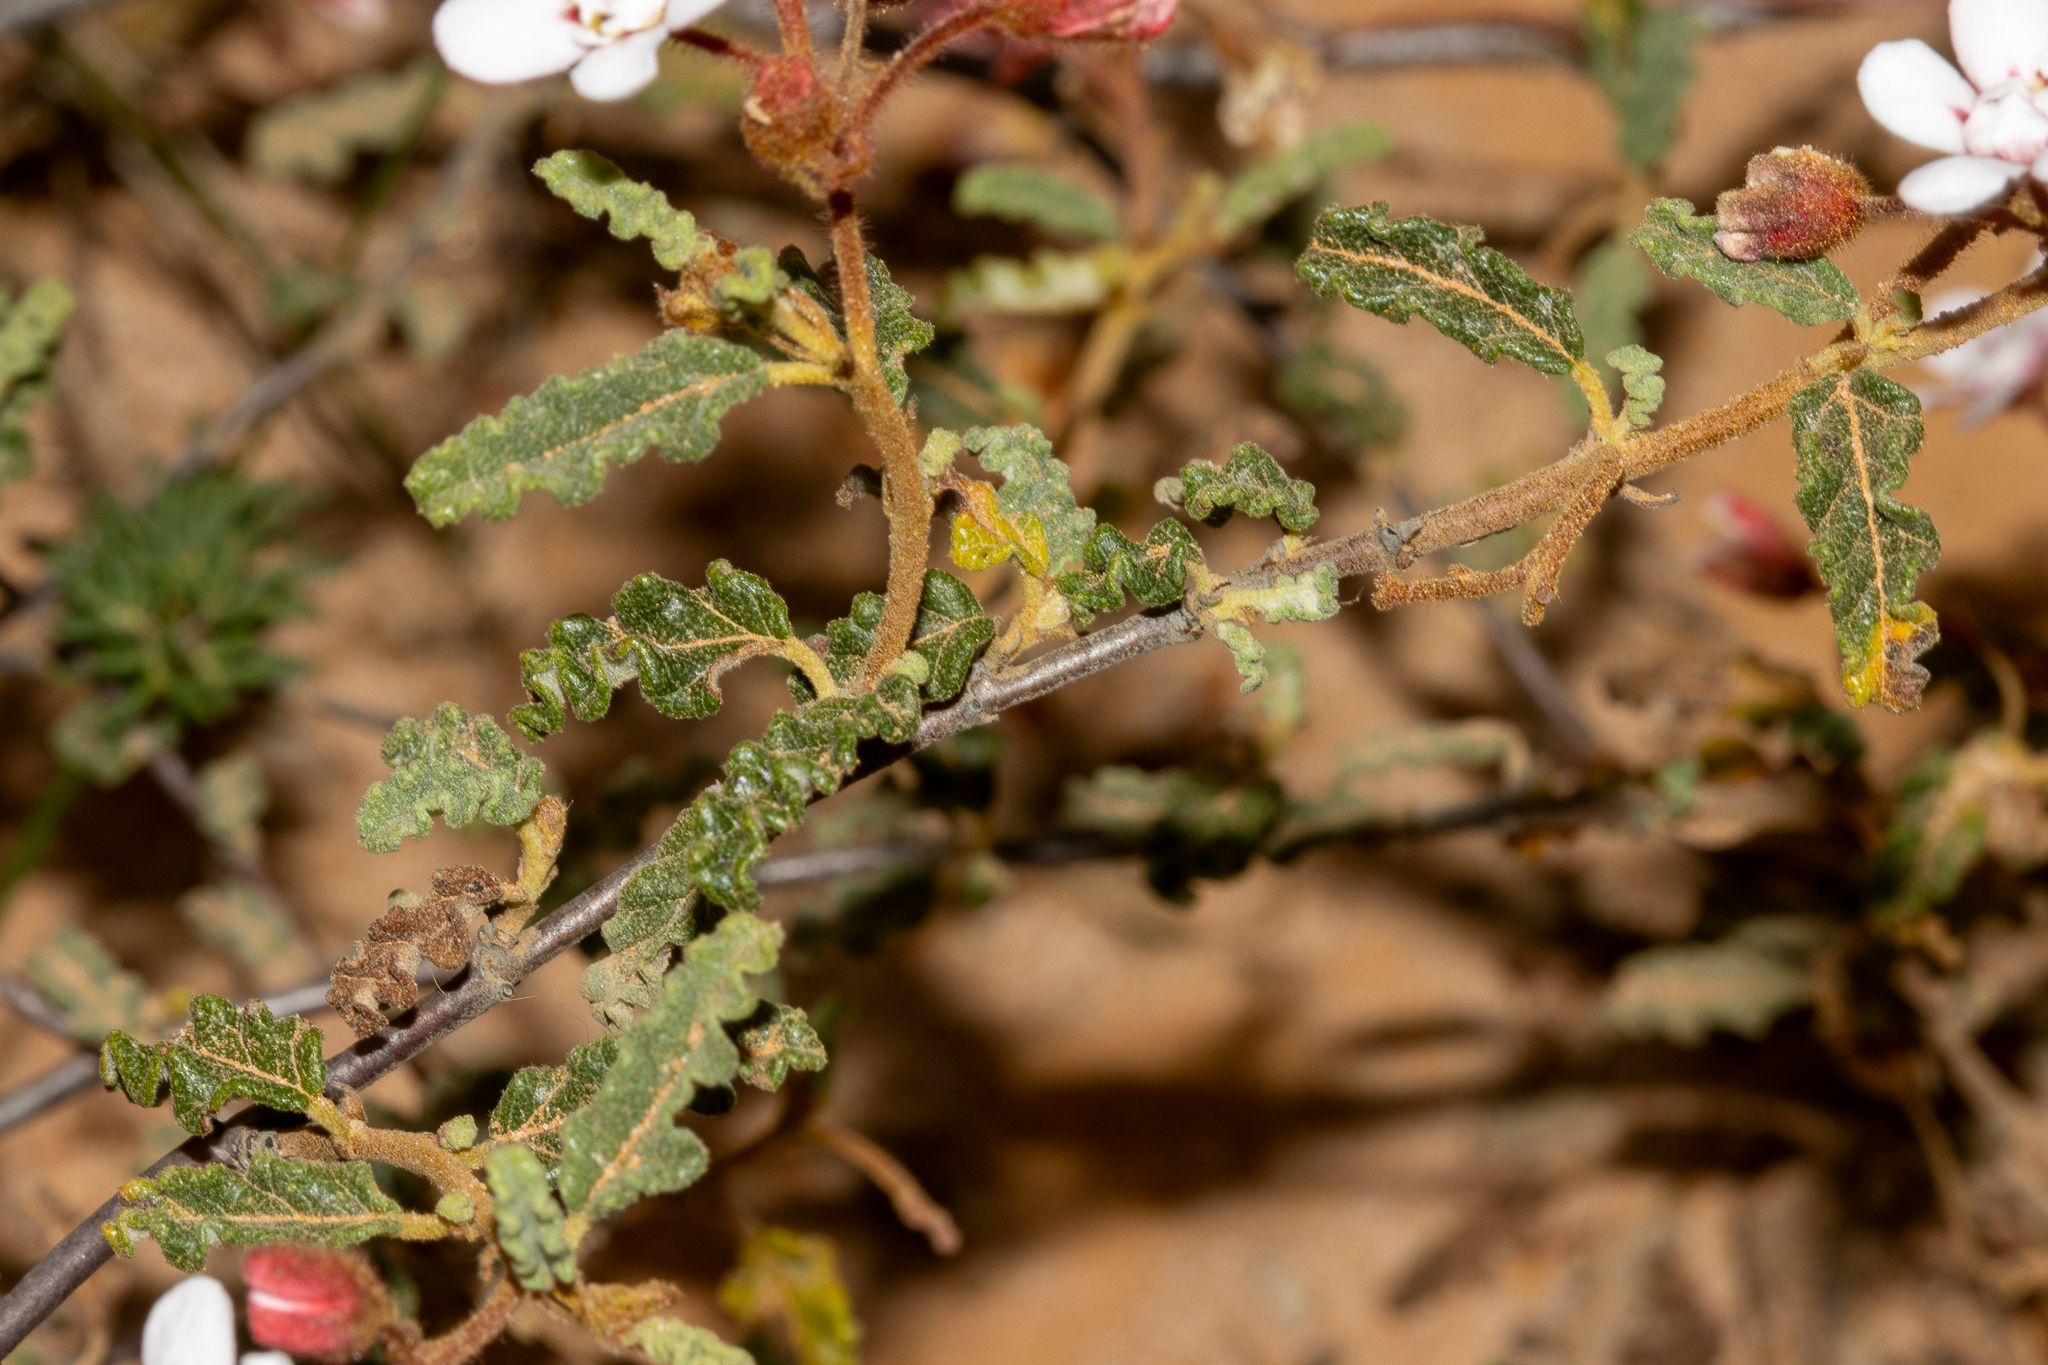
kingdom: Plantae
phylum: Tracheophyta
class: Magnoliopsida
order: Malvales
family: Malvaceae
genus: Androcalva
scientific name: Androcalva pulchella
